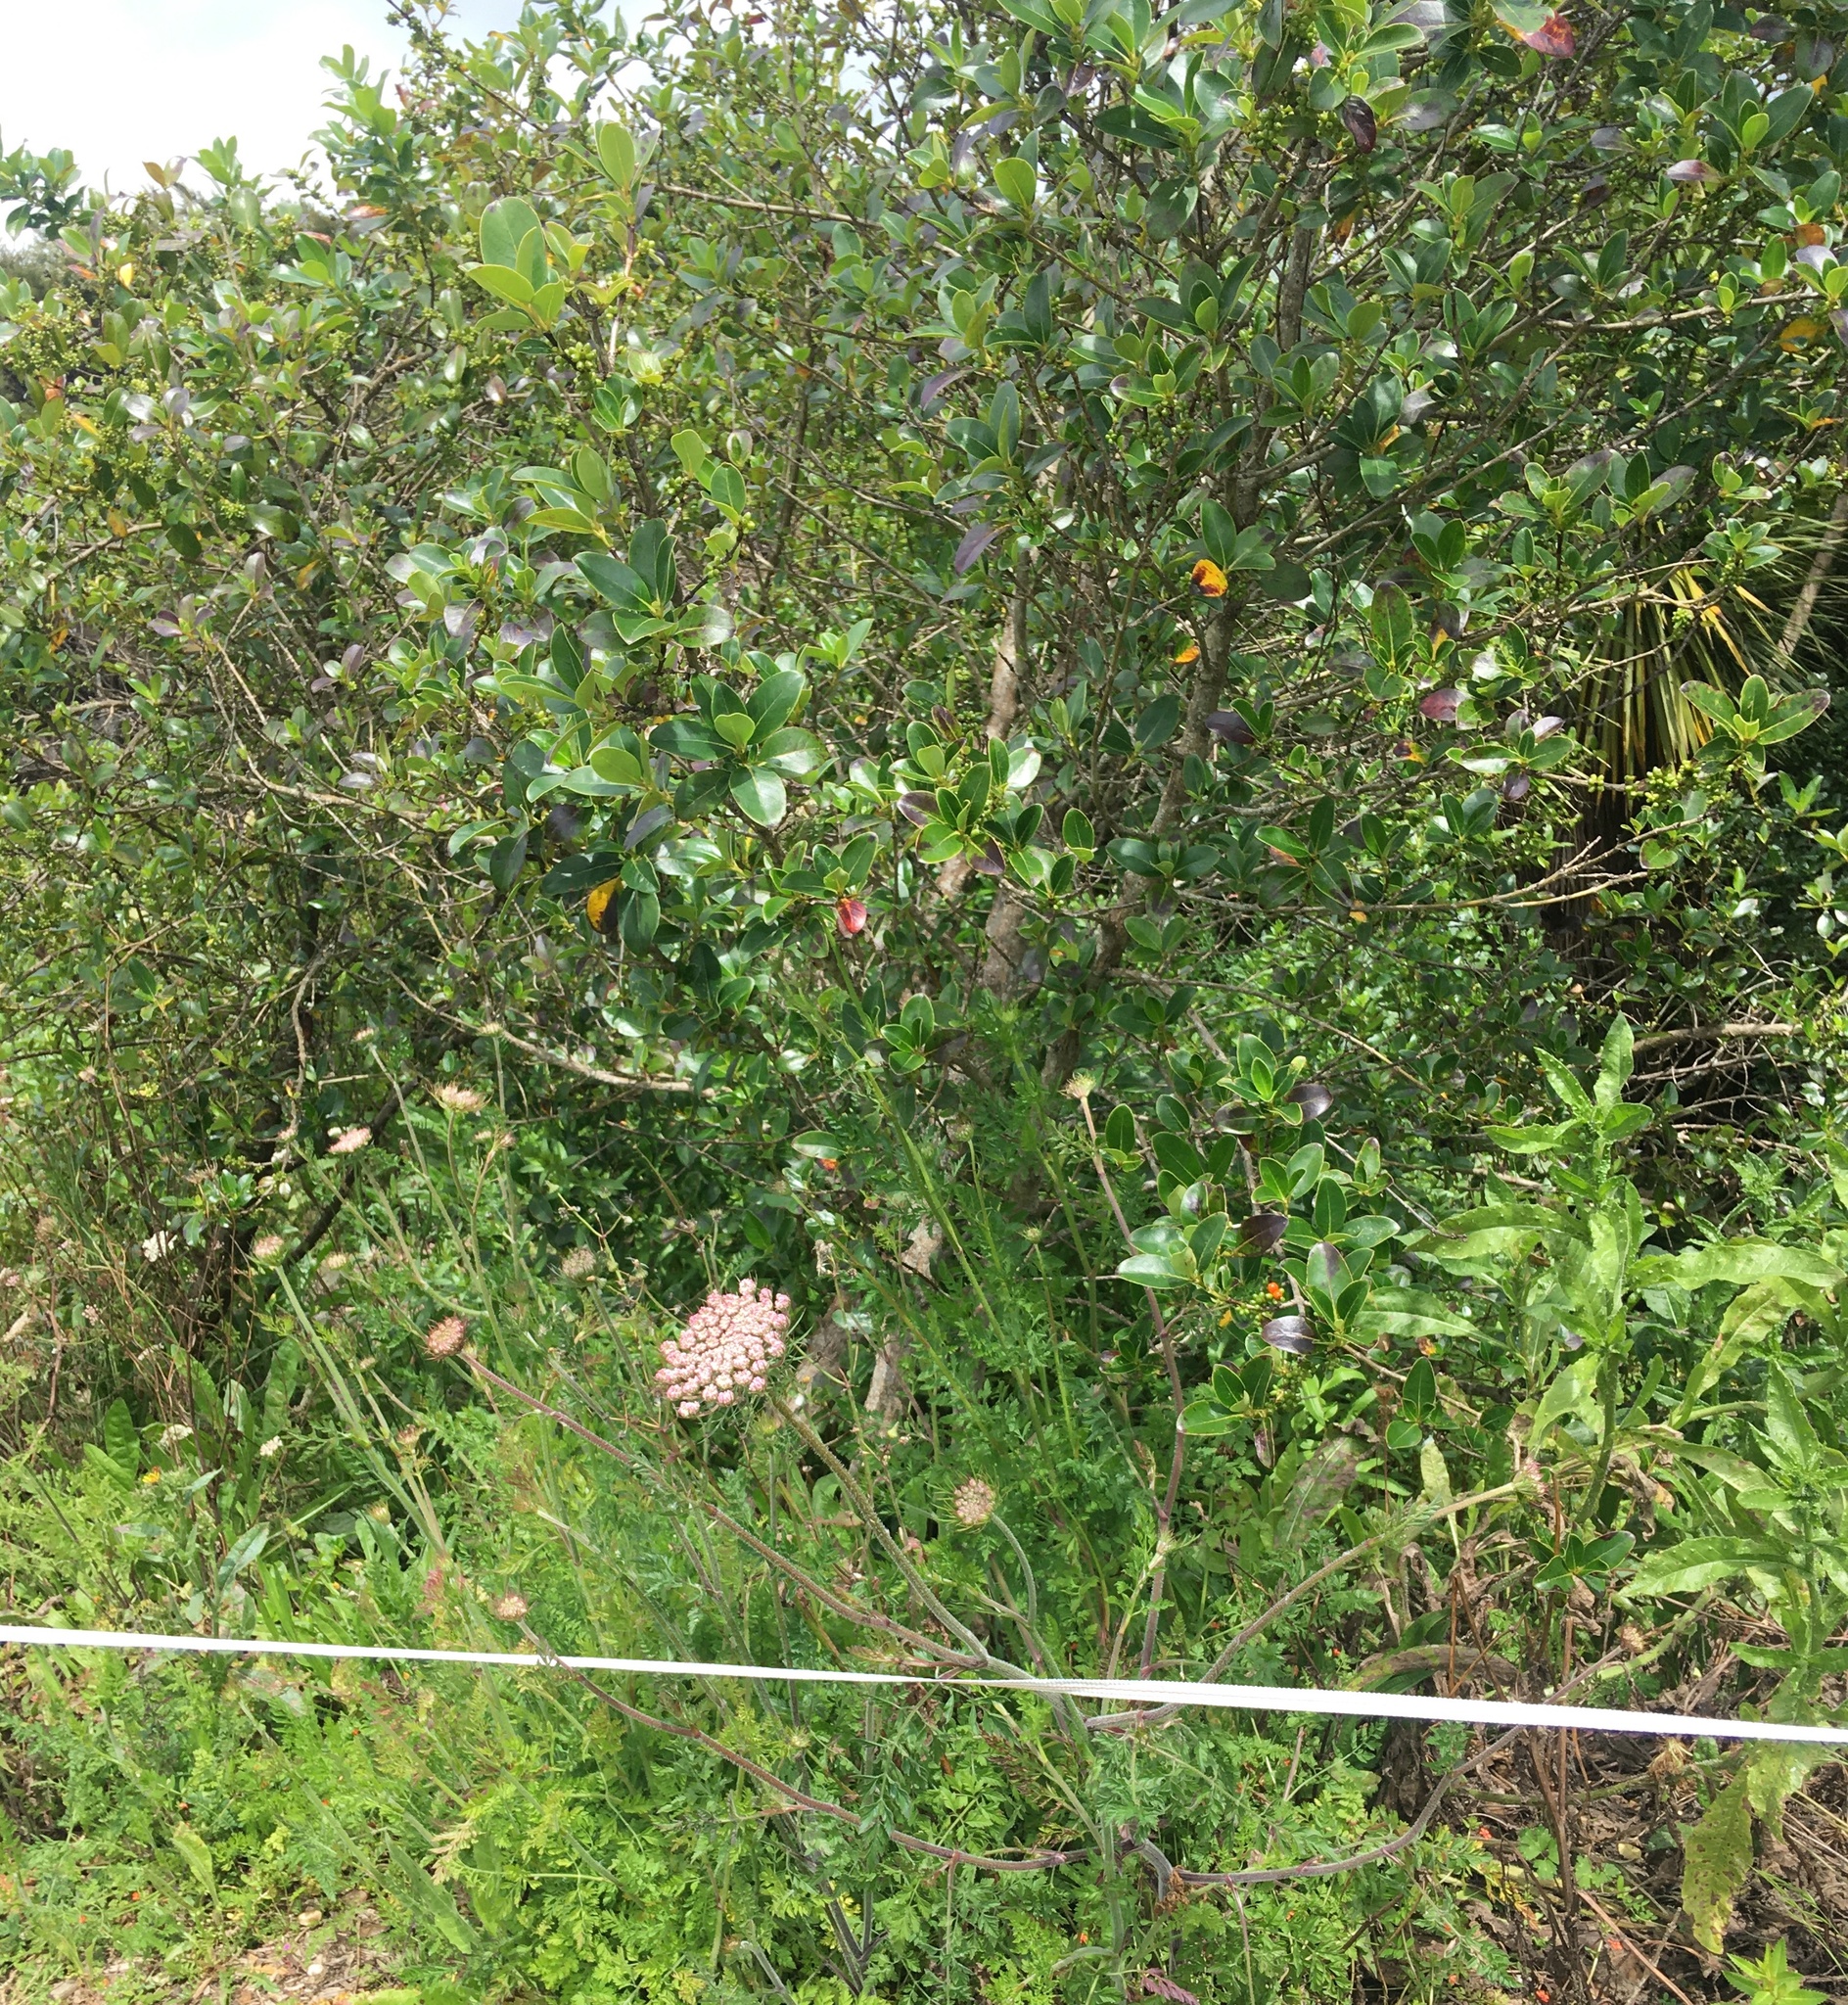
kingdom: Plantae
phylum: Tracheophyta
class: Magnoliopsida
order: Apiales
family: Apiaceae
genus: Daucus
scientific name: Daucus carota
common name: Wild carrot
